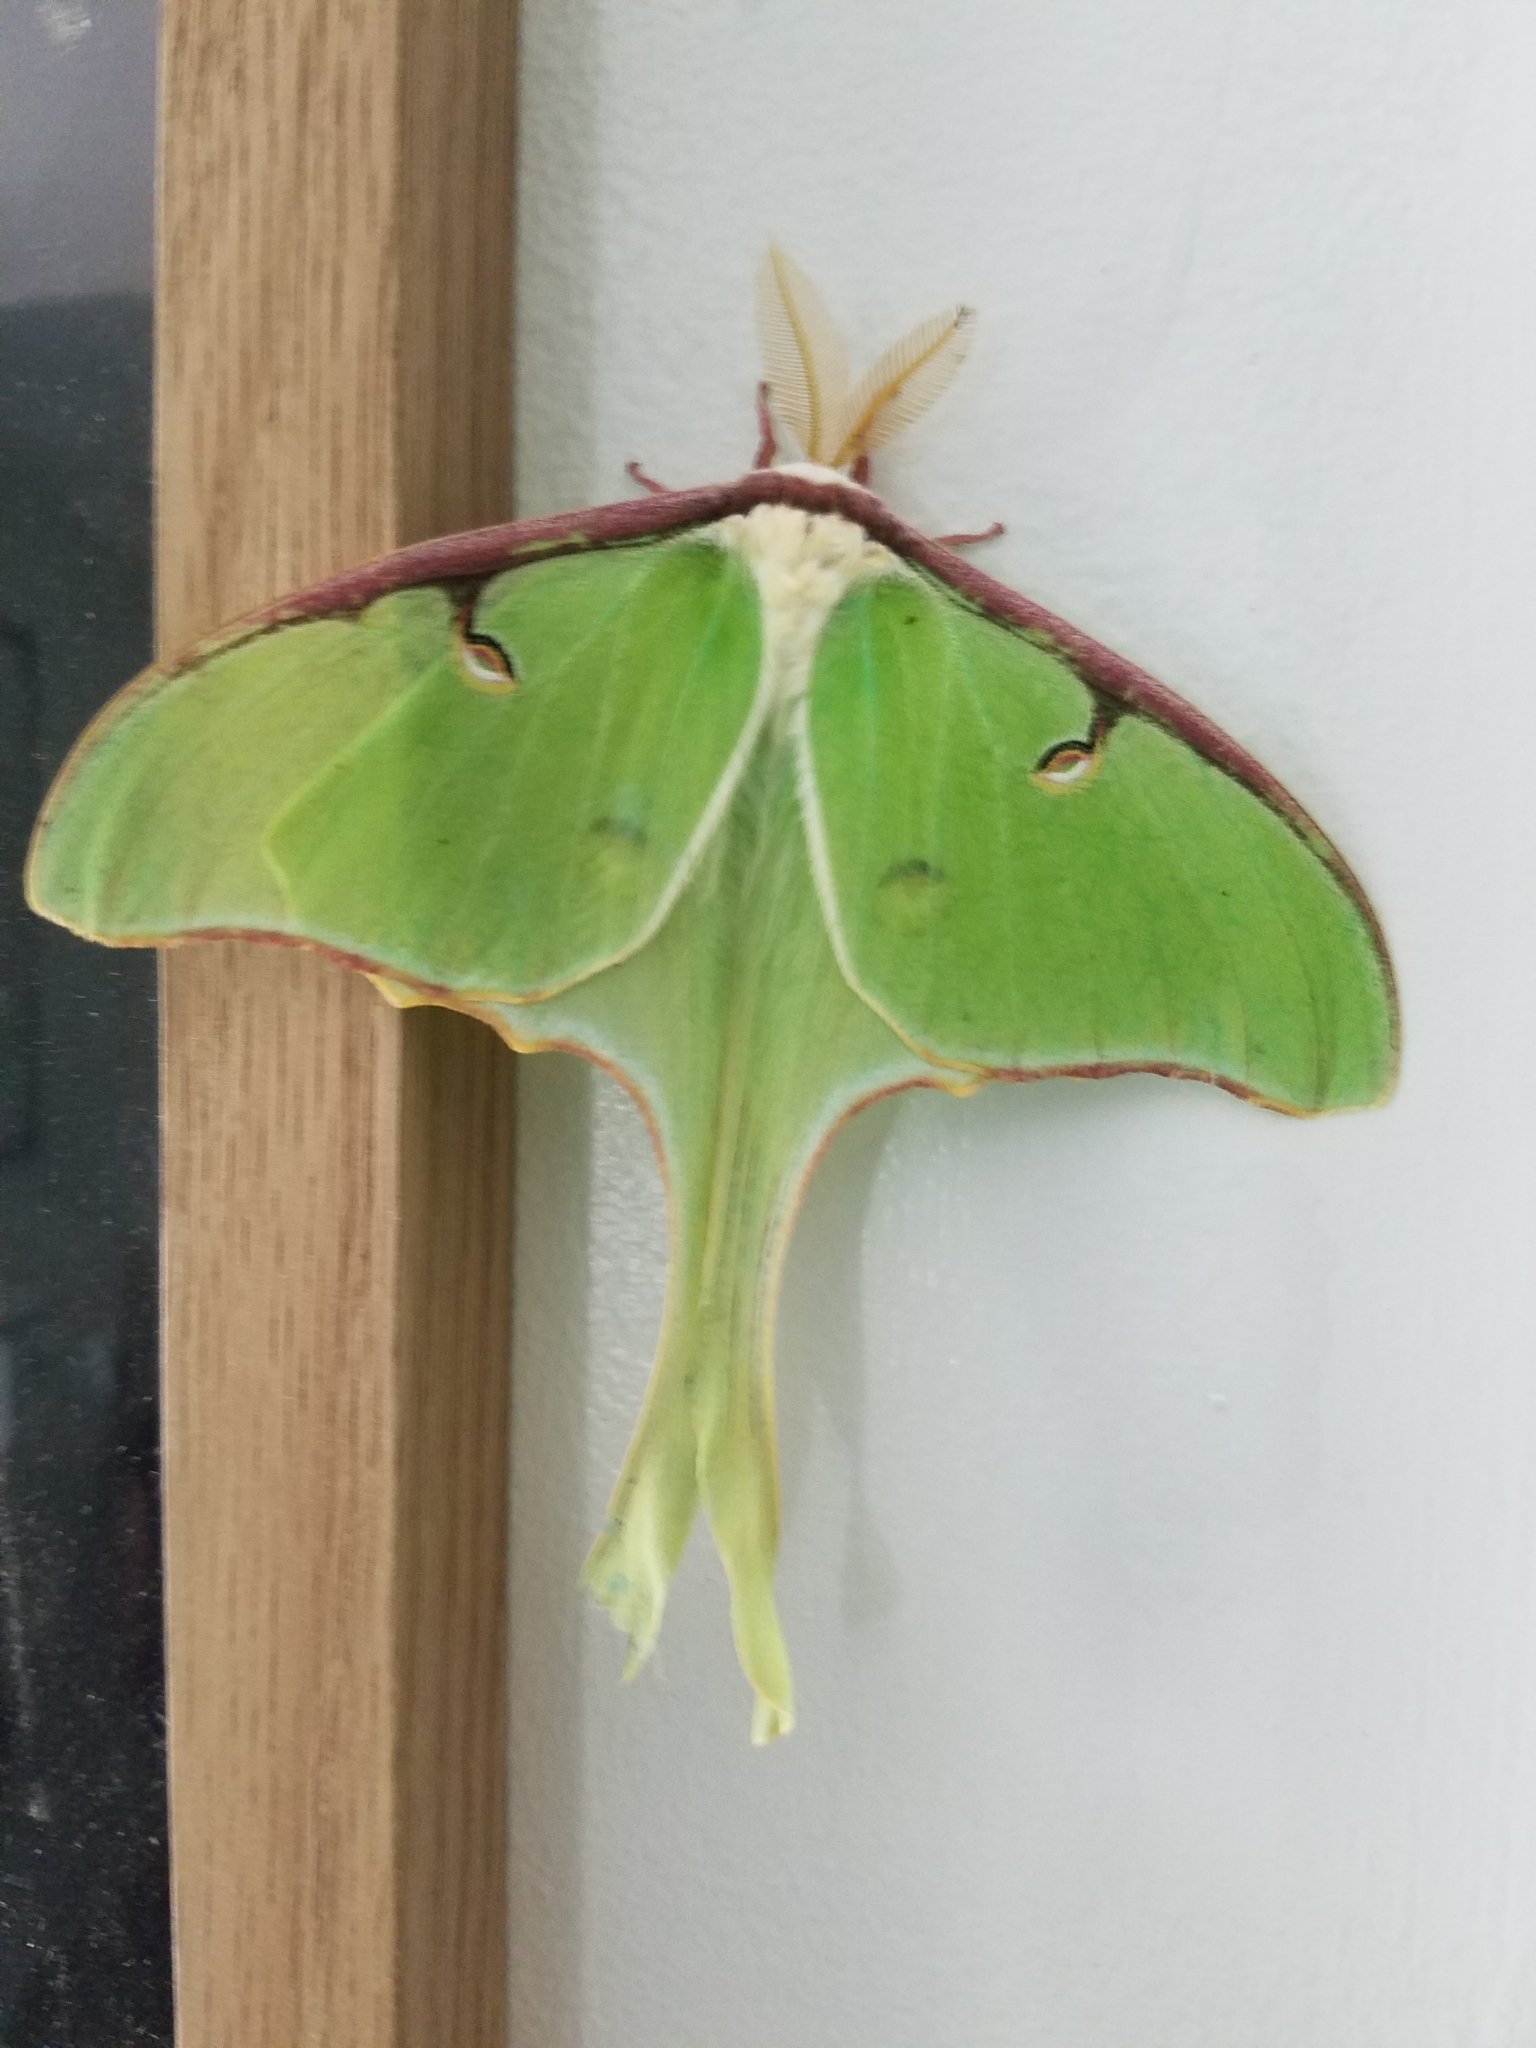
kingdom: Animalia
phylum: Arthropoda
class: Insecta
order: Lepidoptera
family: Saturniidae
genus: Actias
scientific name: Actias luna
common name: Luna moth
